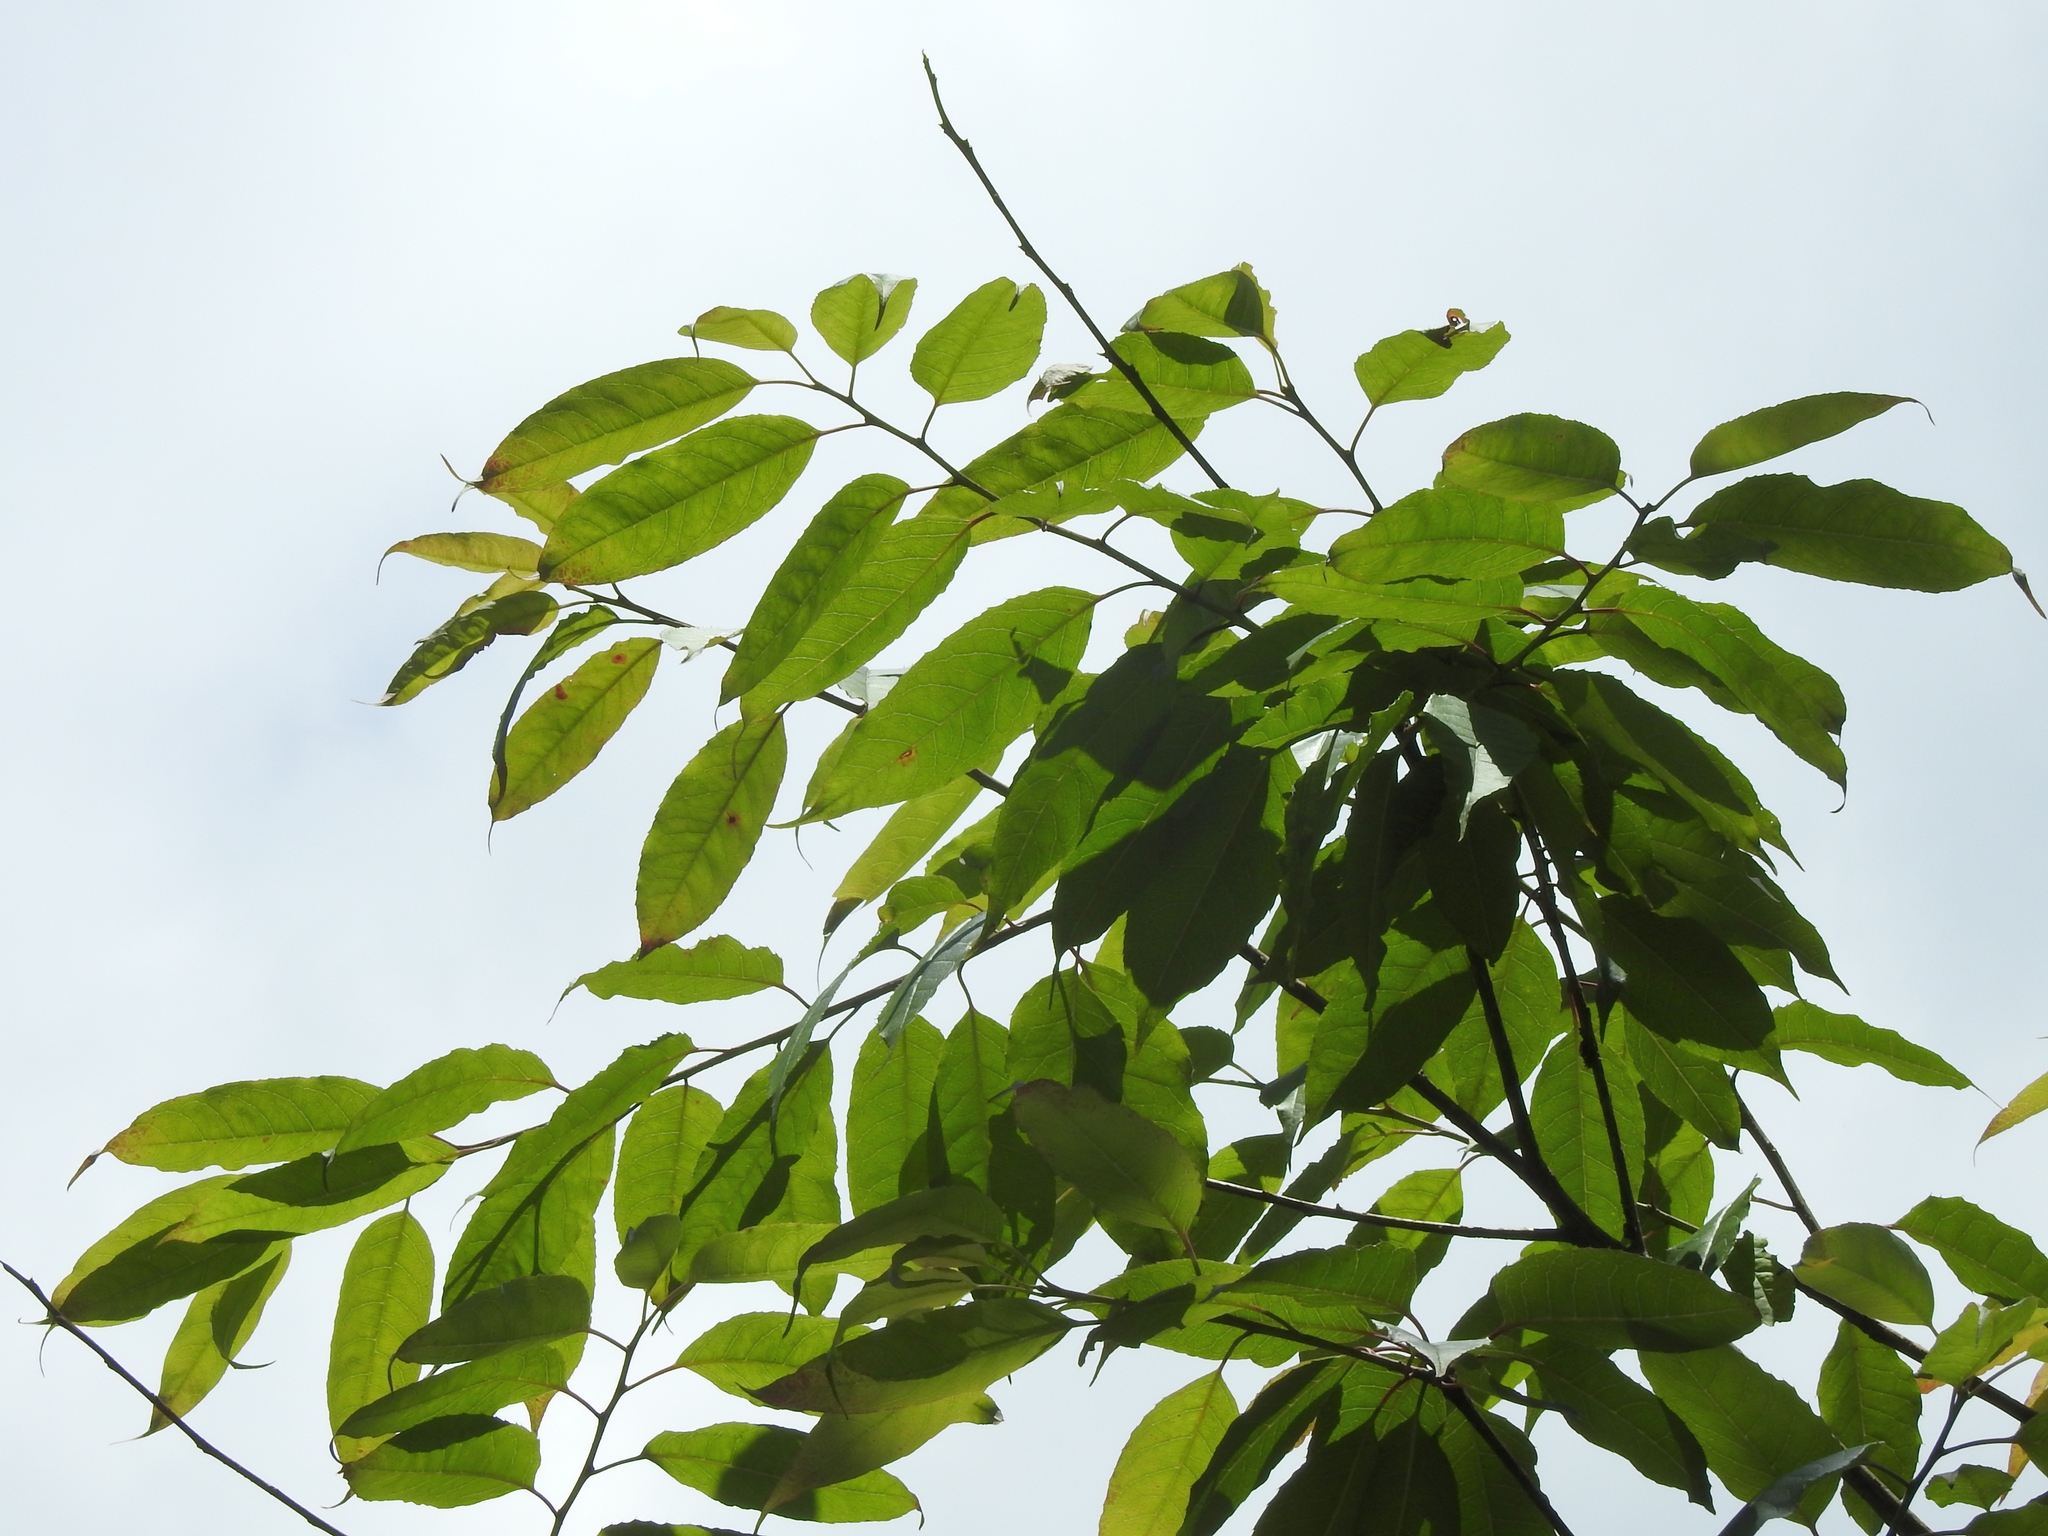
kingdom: Plantae
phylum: Tracheophyta
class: Magnoliopsida
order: Aquifoliales
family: Aquifoliaceae
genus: Ilex
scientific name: Ilex micrococca
